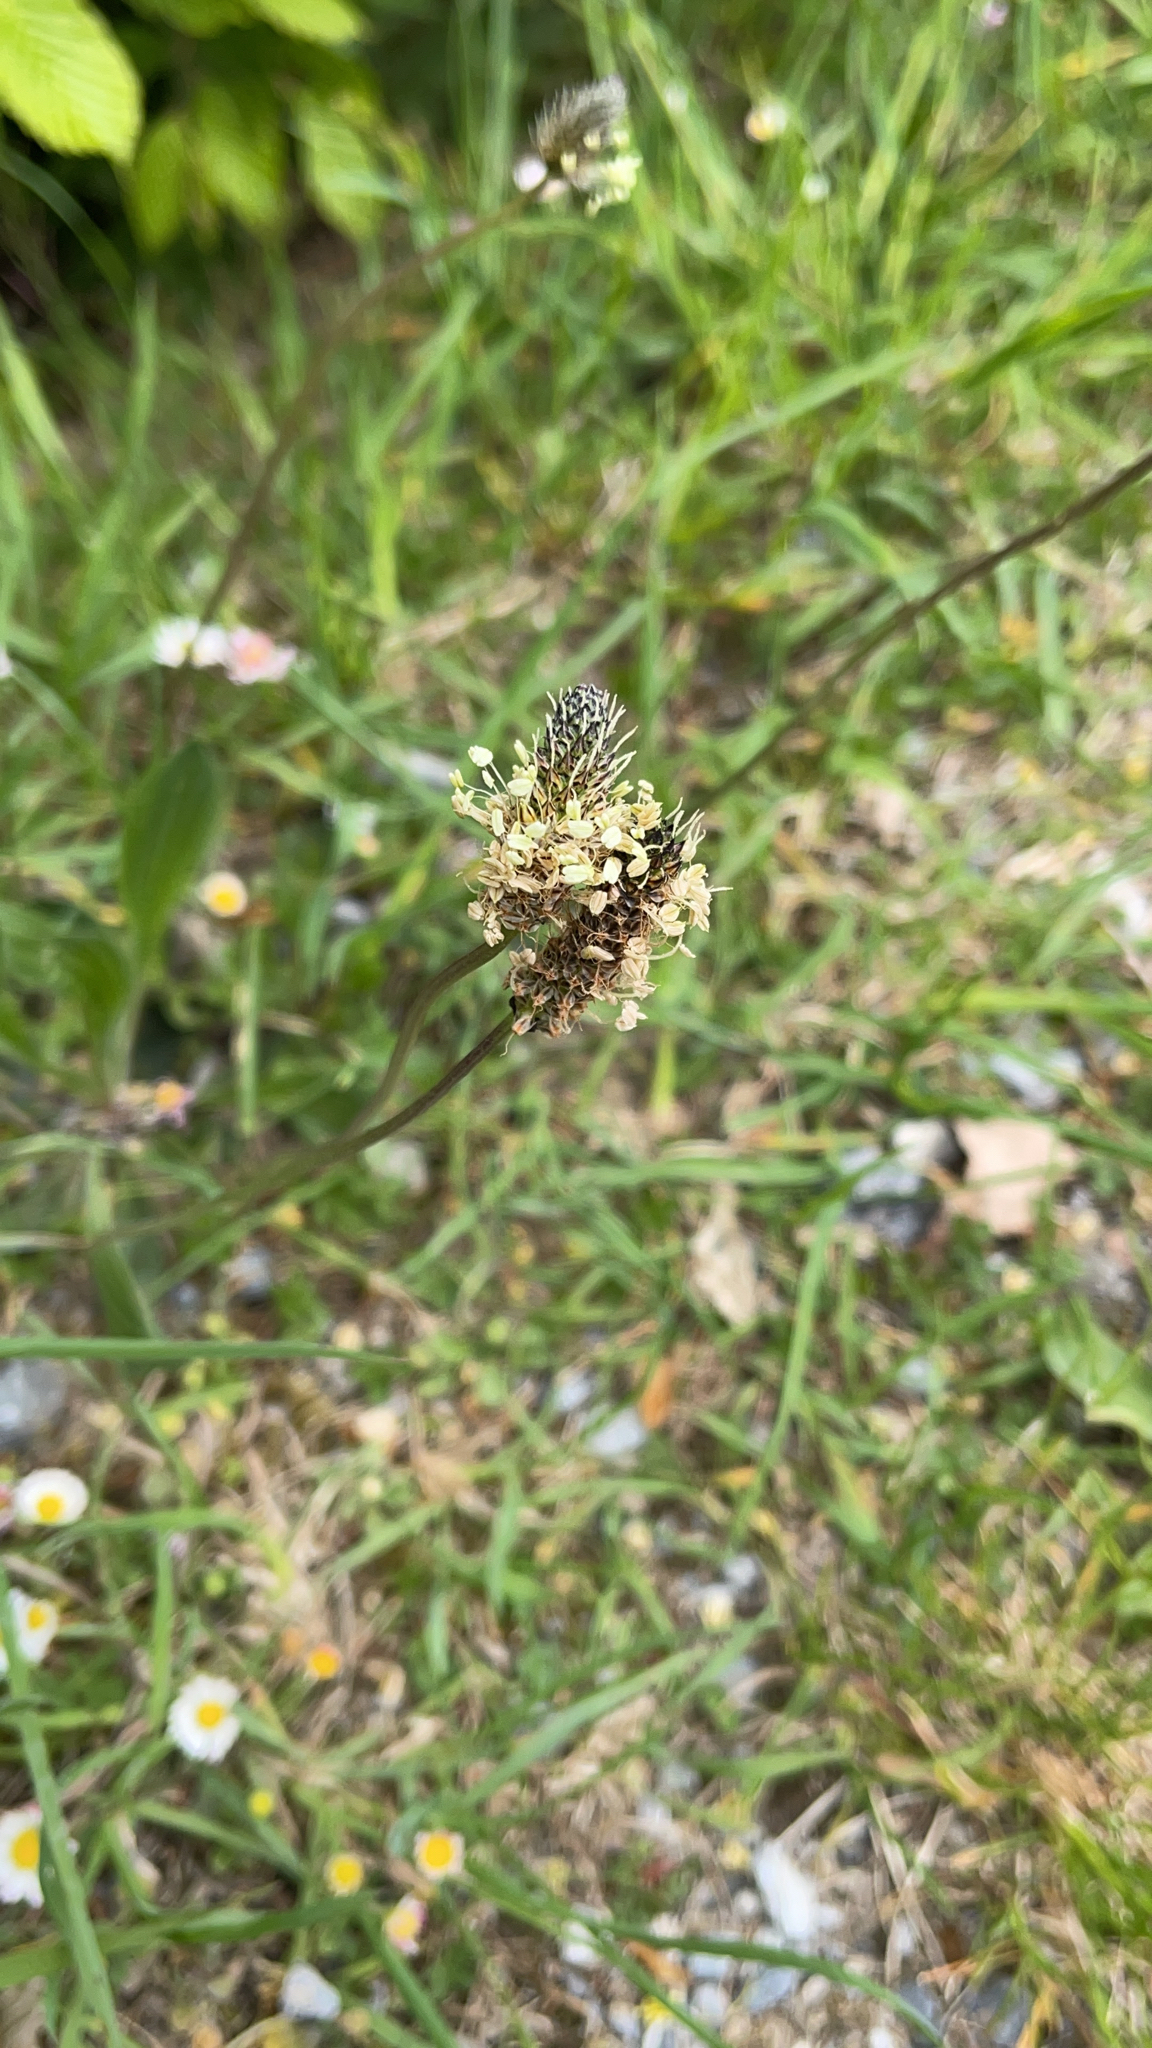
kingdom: Plantae
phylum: Tracheophyta
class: Magnoliopsida
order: Lamiales
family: Plantaginaceae
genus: Plantago
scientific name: Plantago lanceolata
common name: Ribwort plantain
